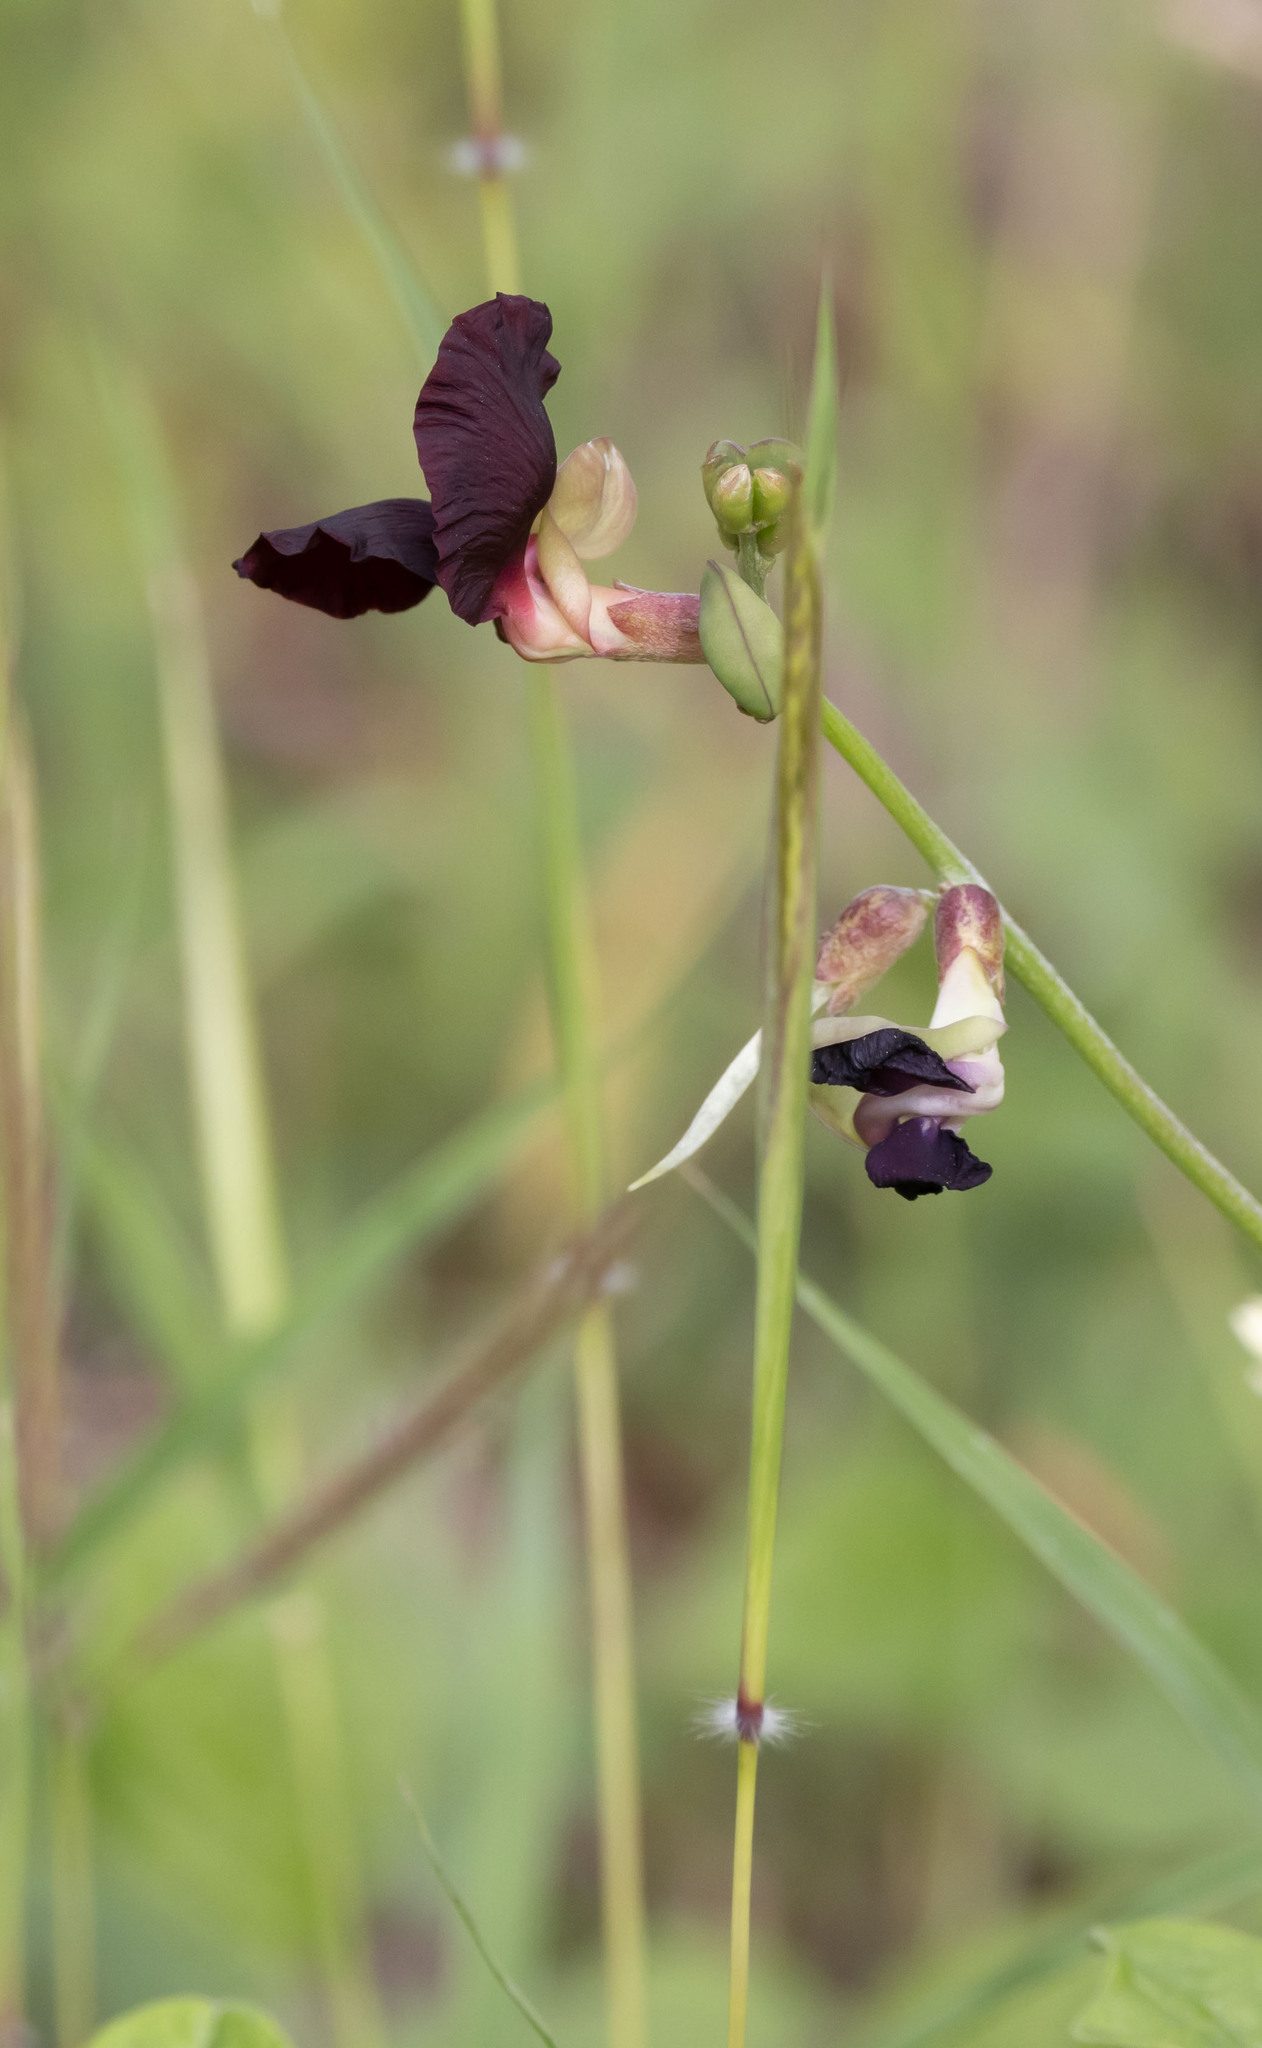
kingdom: Plantae
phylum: Tracheophyta
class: Magnoliopsida
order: Fabales
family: Fabaceae
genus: Macroptilium
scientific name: Macroptilium atropurpureum
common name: Purple bushbean
